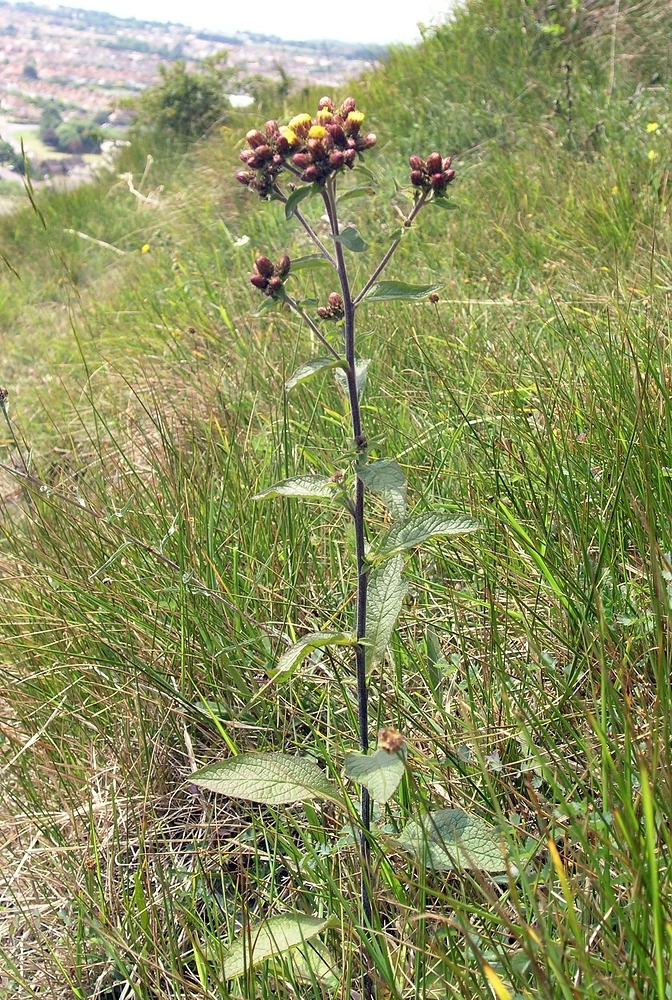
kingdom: Plantae
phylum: Tracheophyta
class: Magnoliopsida
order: Asterales
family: Asteraceae
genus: Pentanema
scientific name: Pentanema squarrosum
